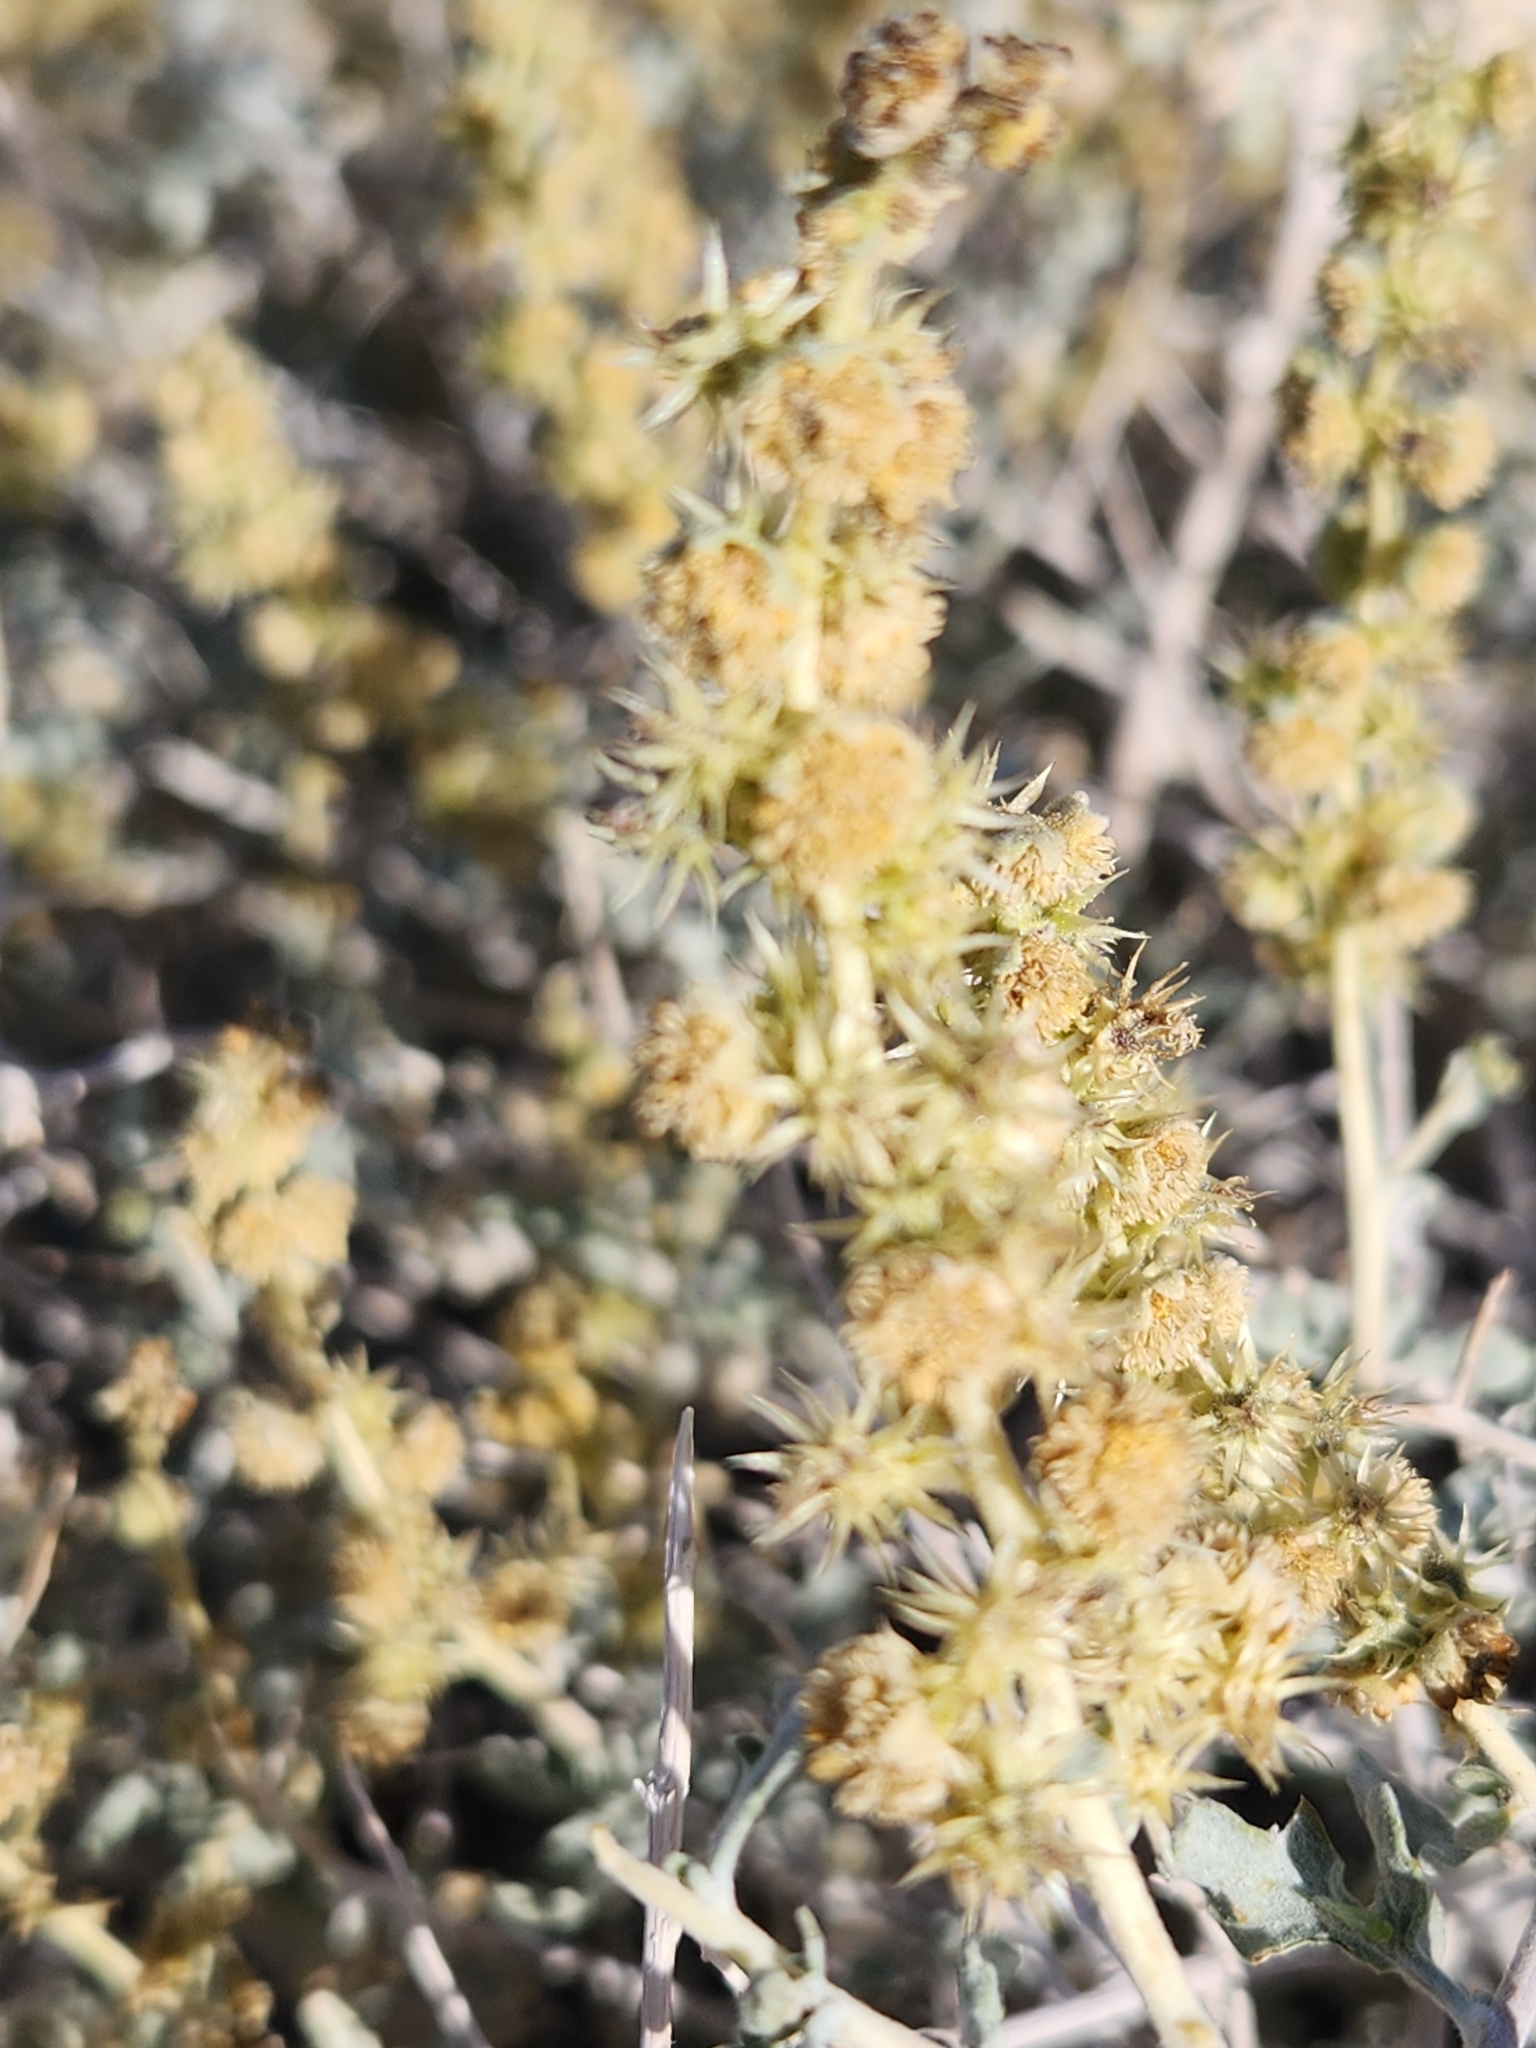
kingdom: Plantae
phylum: Tracheophyta
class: Magnoliopsida
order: Asterales
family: Asteraceae
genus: Ambrosia
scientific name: Ambrosia dumosa
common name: Bur-sage
